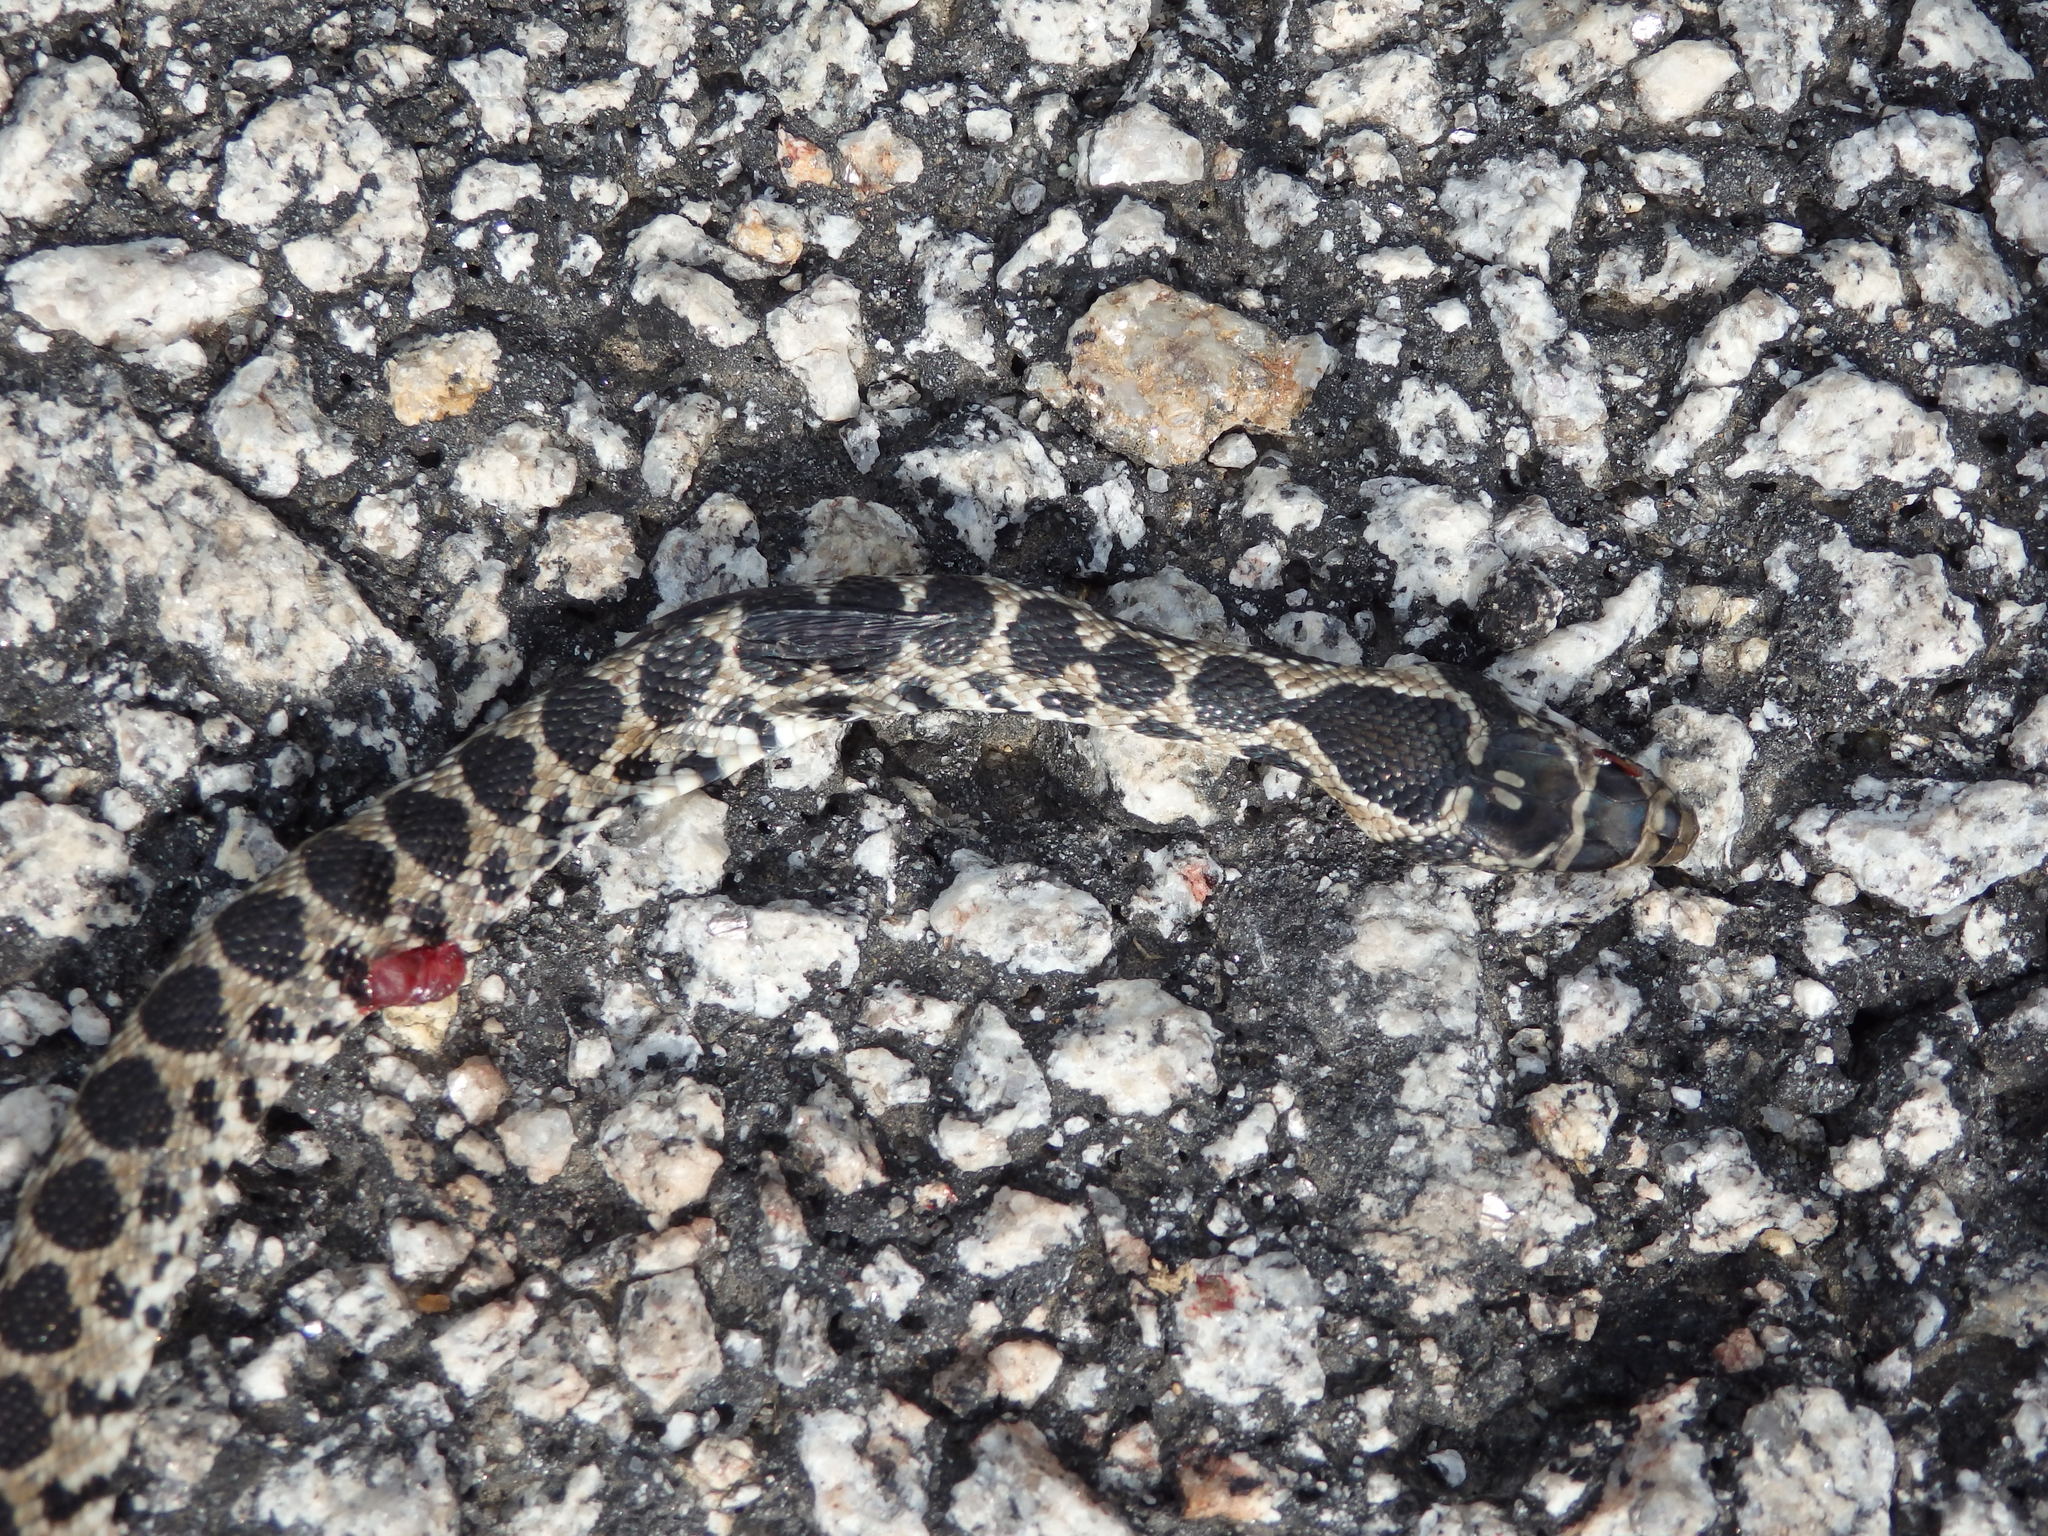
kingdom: Animalia
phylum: Chordata
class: Squamata
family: Colubridae
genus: Hemorrhois
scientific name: Hemorrhois hippocrepis
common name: Horseshoe whip snake
